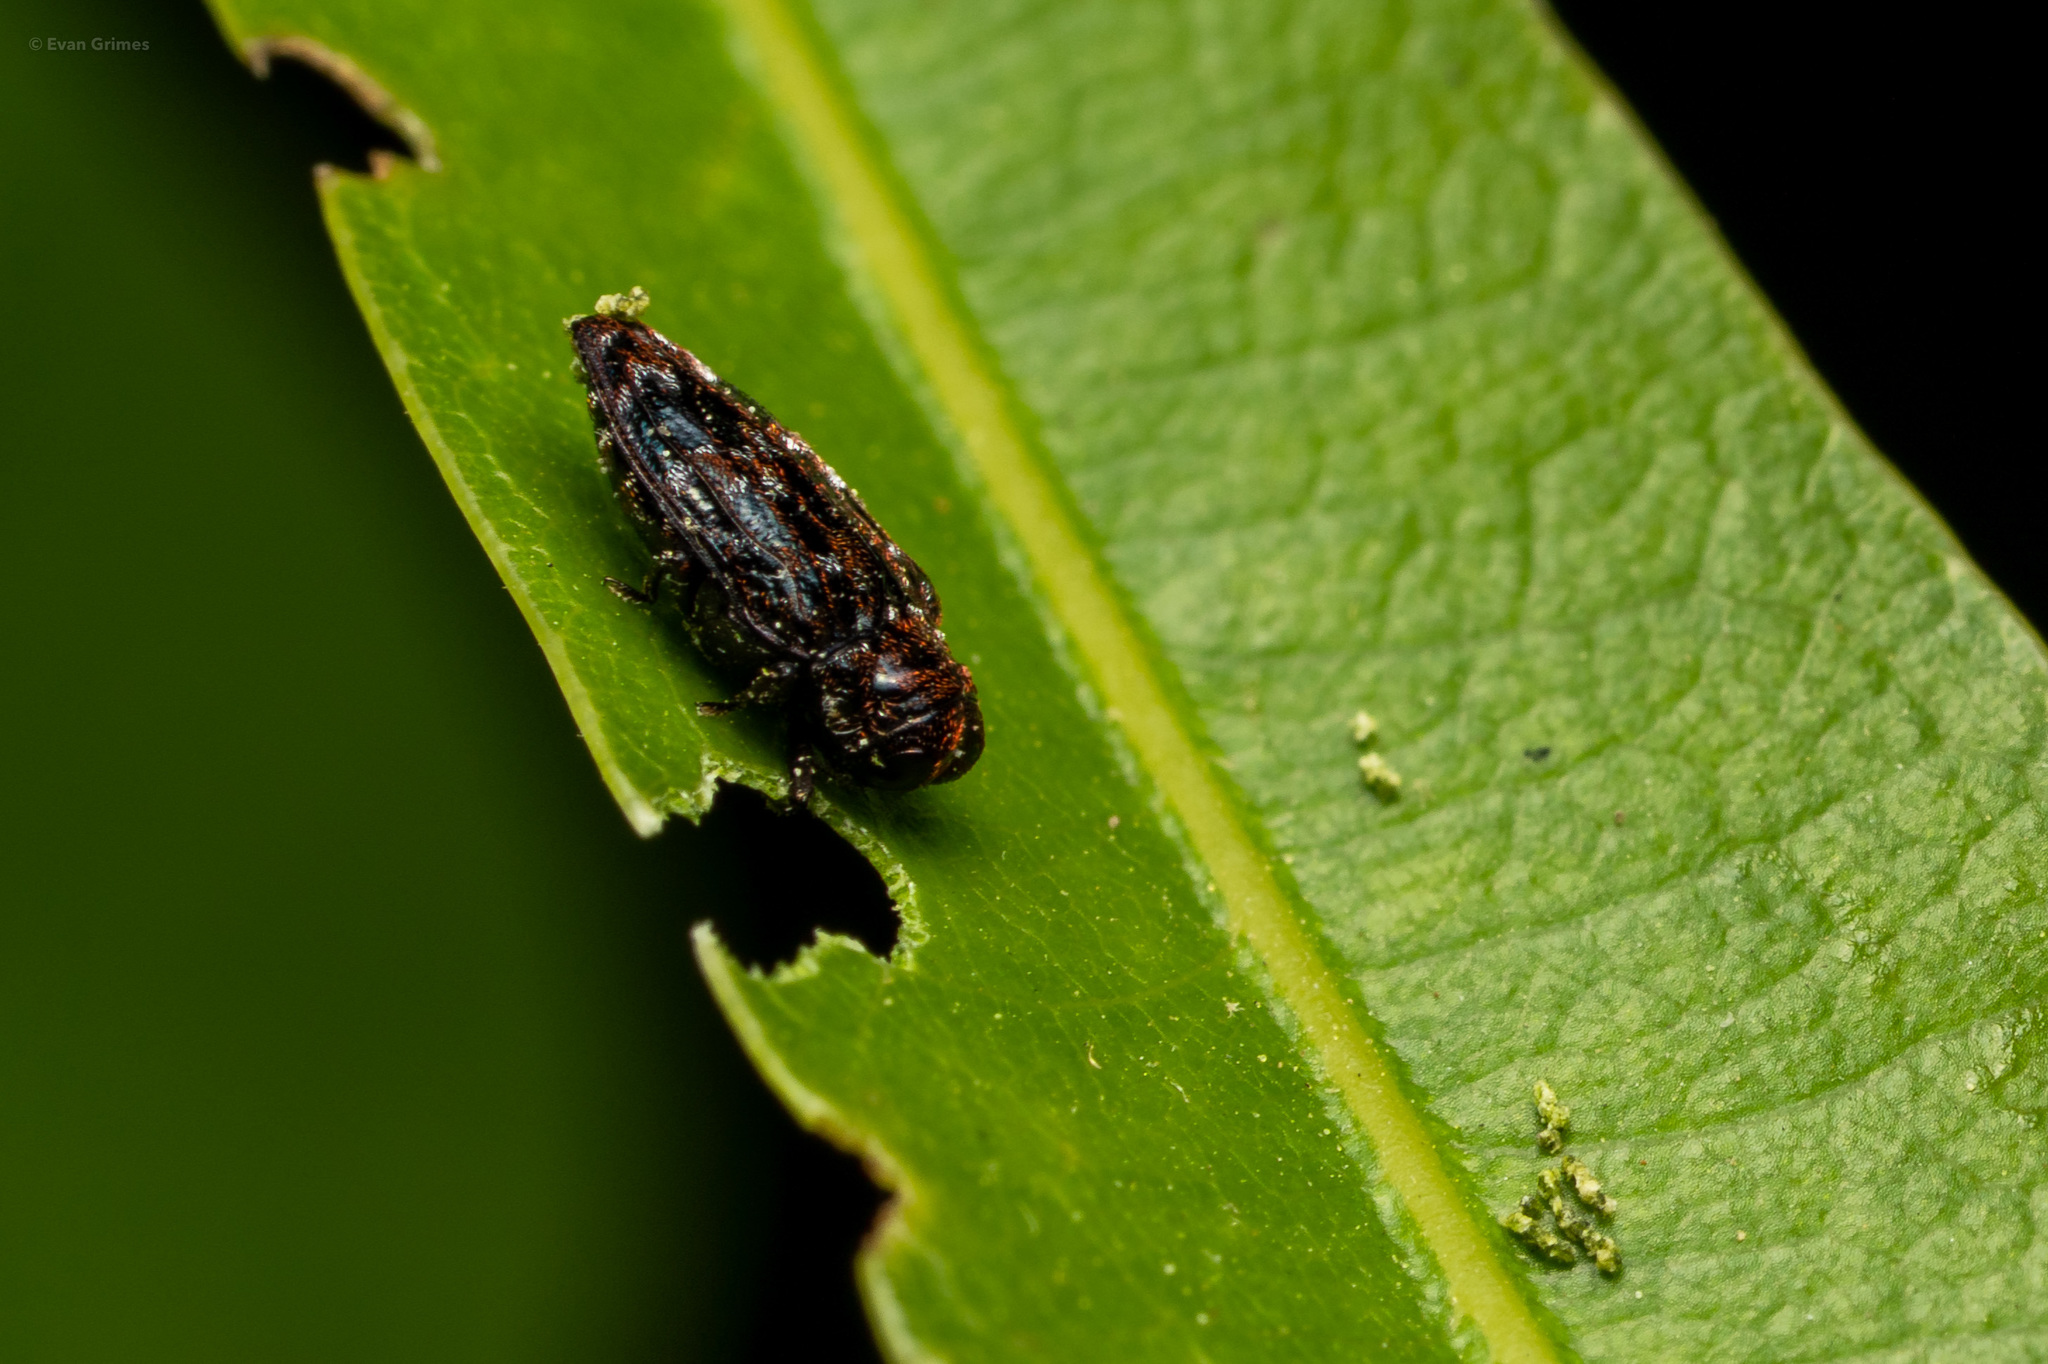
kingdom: Animalia
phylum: Arthropoda
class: Insecta
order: Coleoptera
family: Buprestidae
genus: Brachys
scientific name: Brachys ovatus
